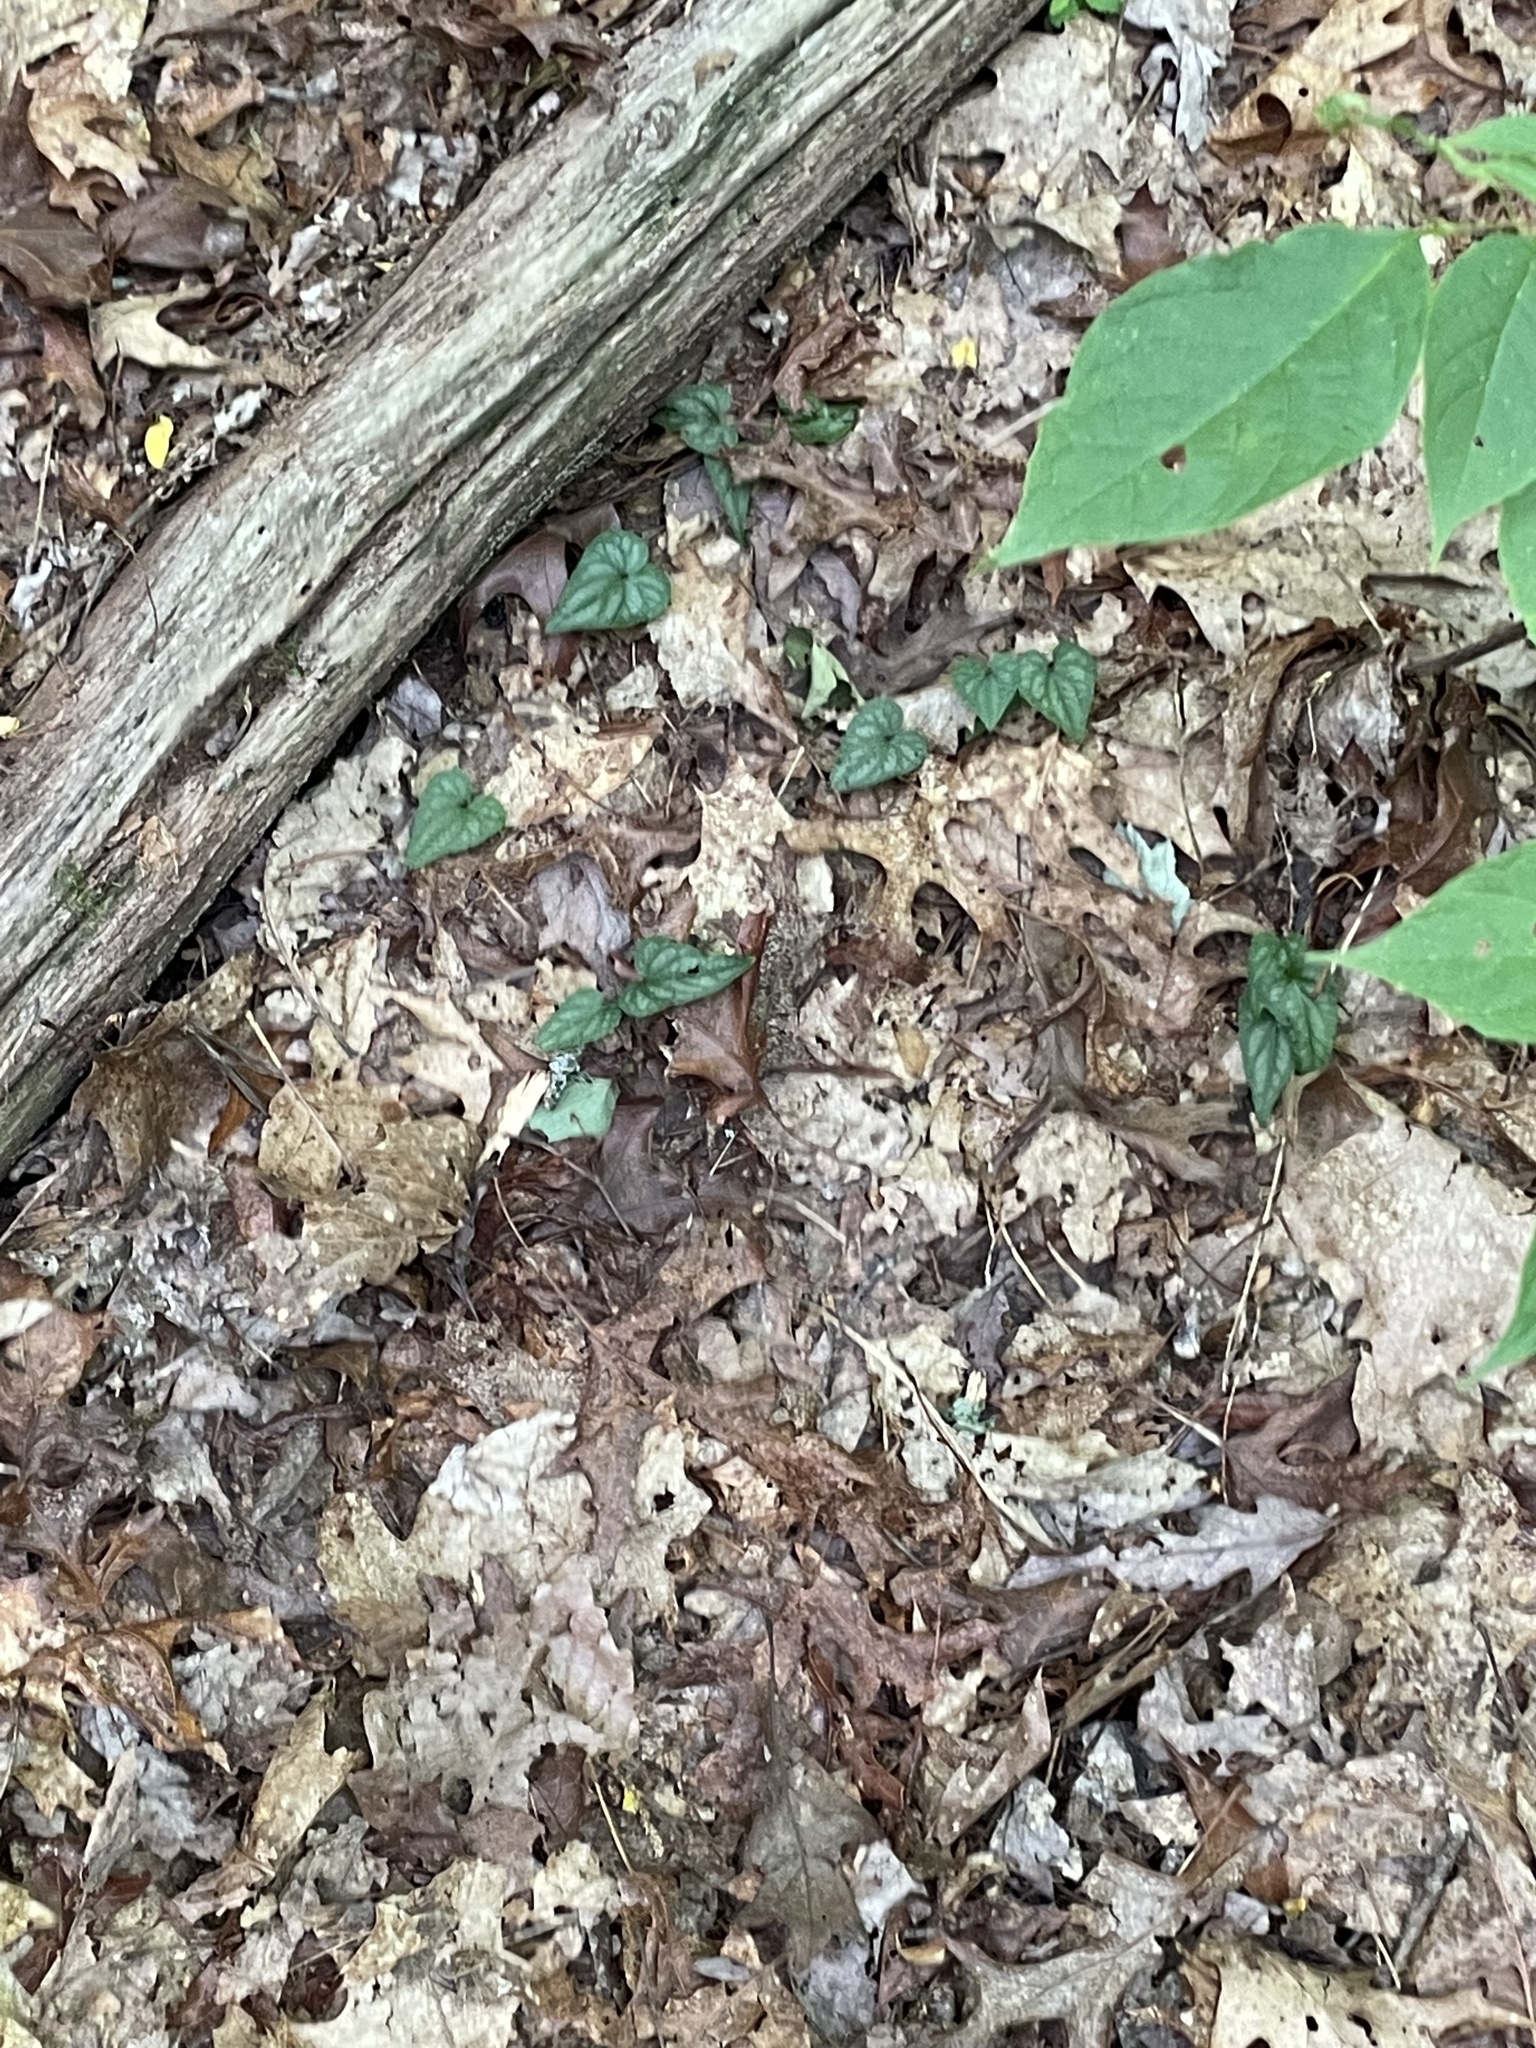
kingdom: Plantae
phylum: Tracheophyta
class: Magnoliopsida
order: Malpighiales
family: Violaceae
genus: Viola
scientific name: Viola hastata
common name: Spear-leaf violet
